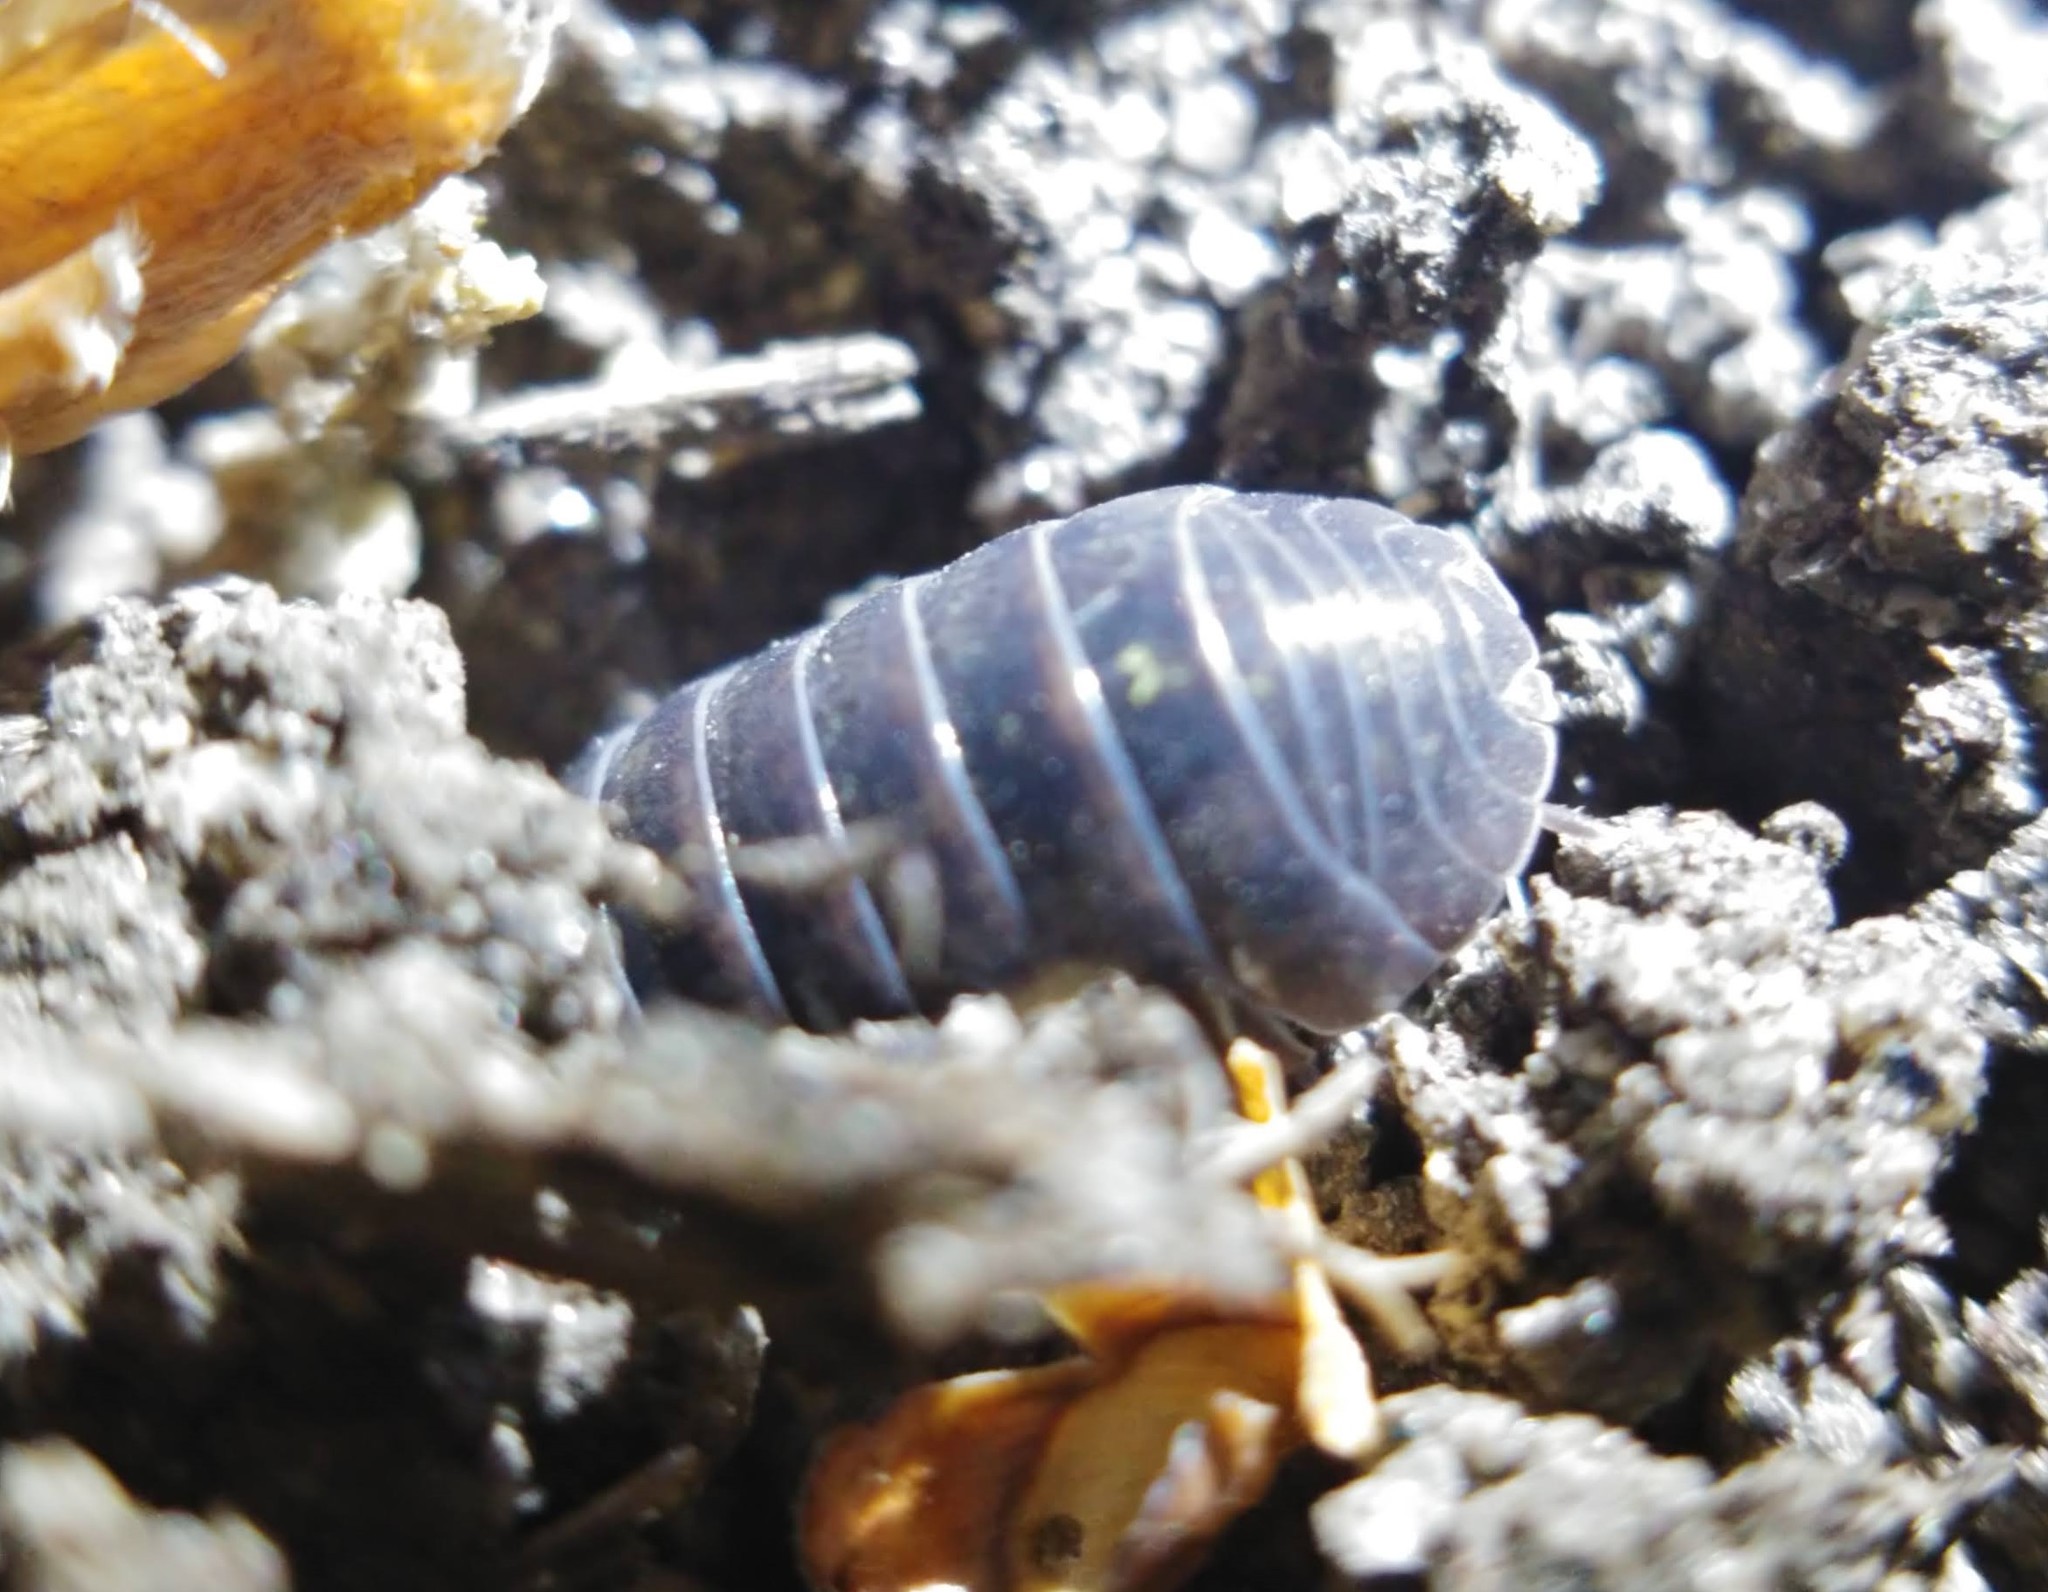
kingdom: Animalia
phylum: Arthropoda
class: Malacostraca
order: Isopoda
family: Armadillidiidae
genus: Armadillidium
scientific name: Armadillidium vulgare
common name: Common pill woodlouse
